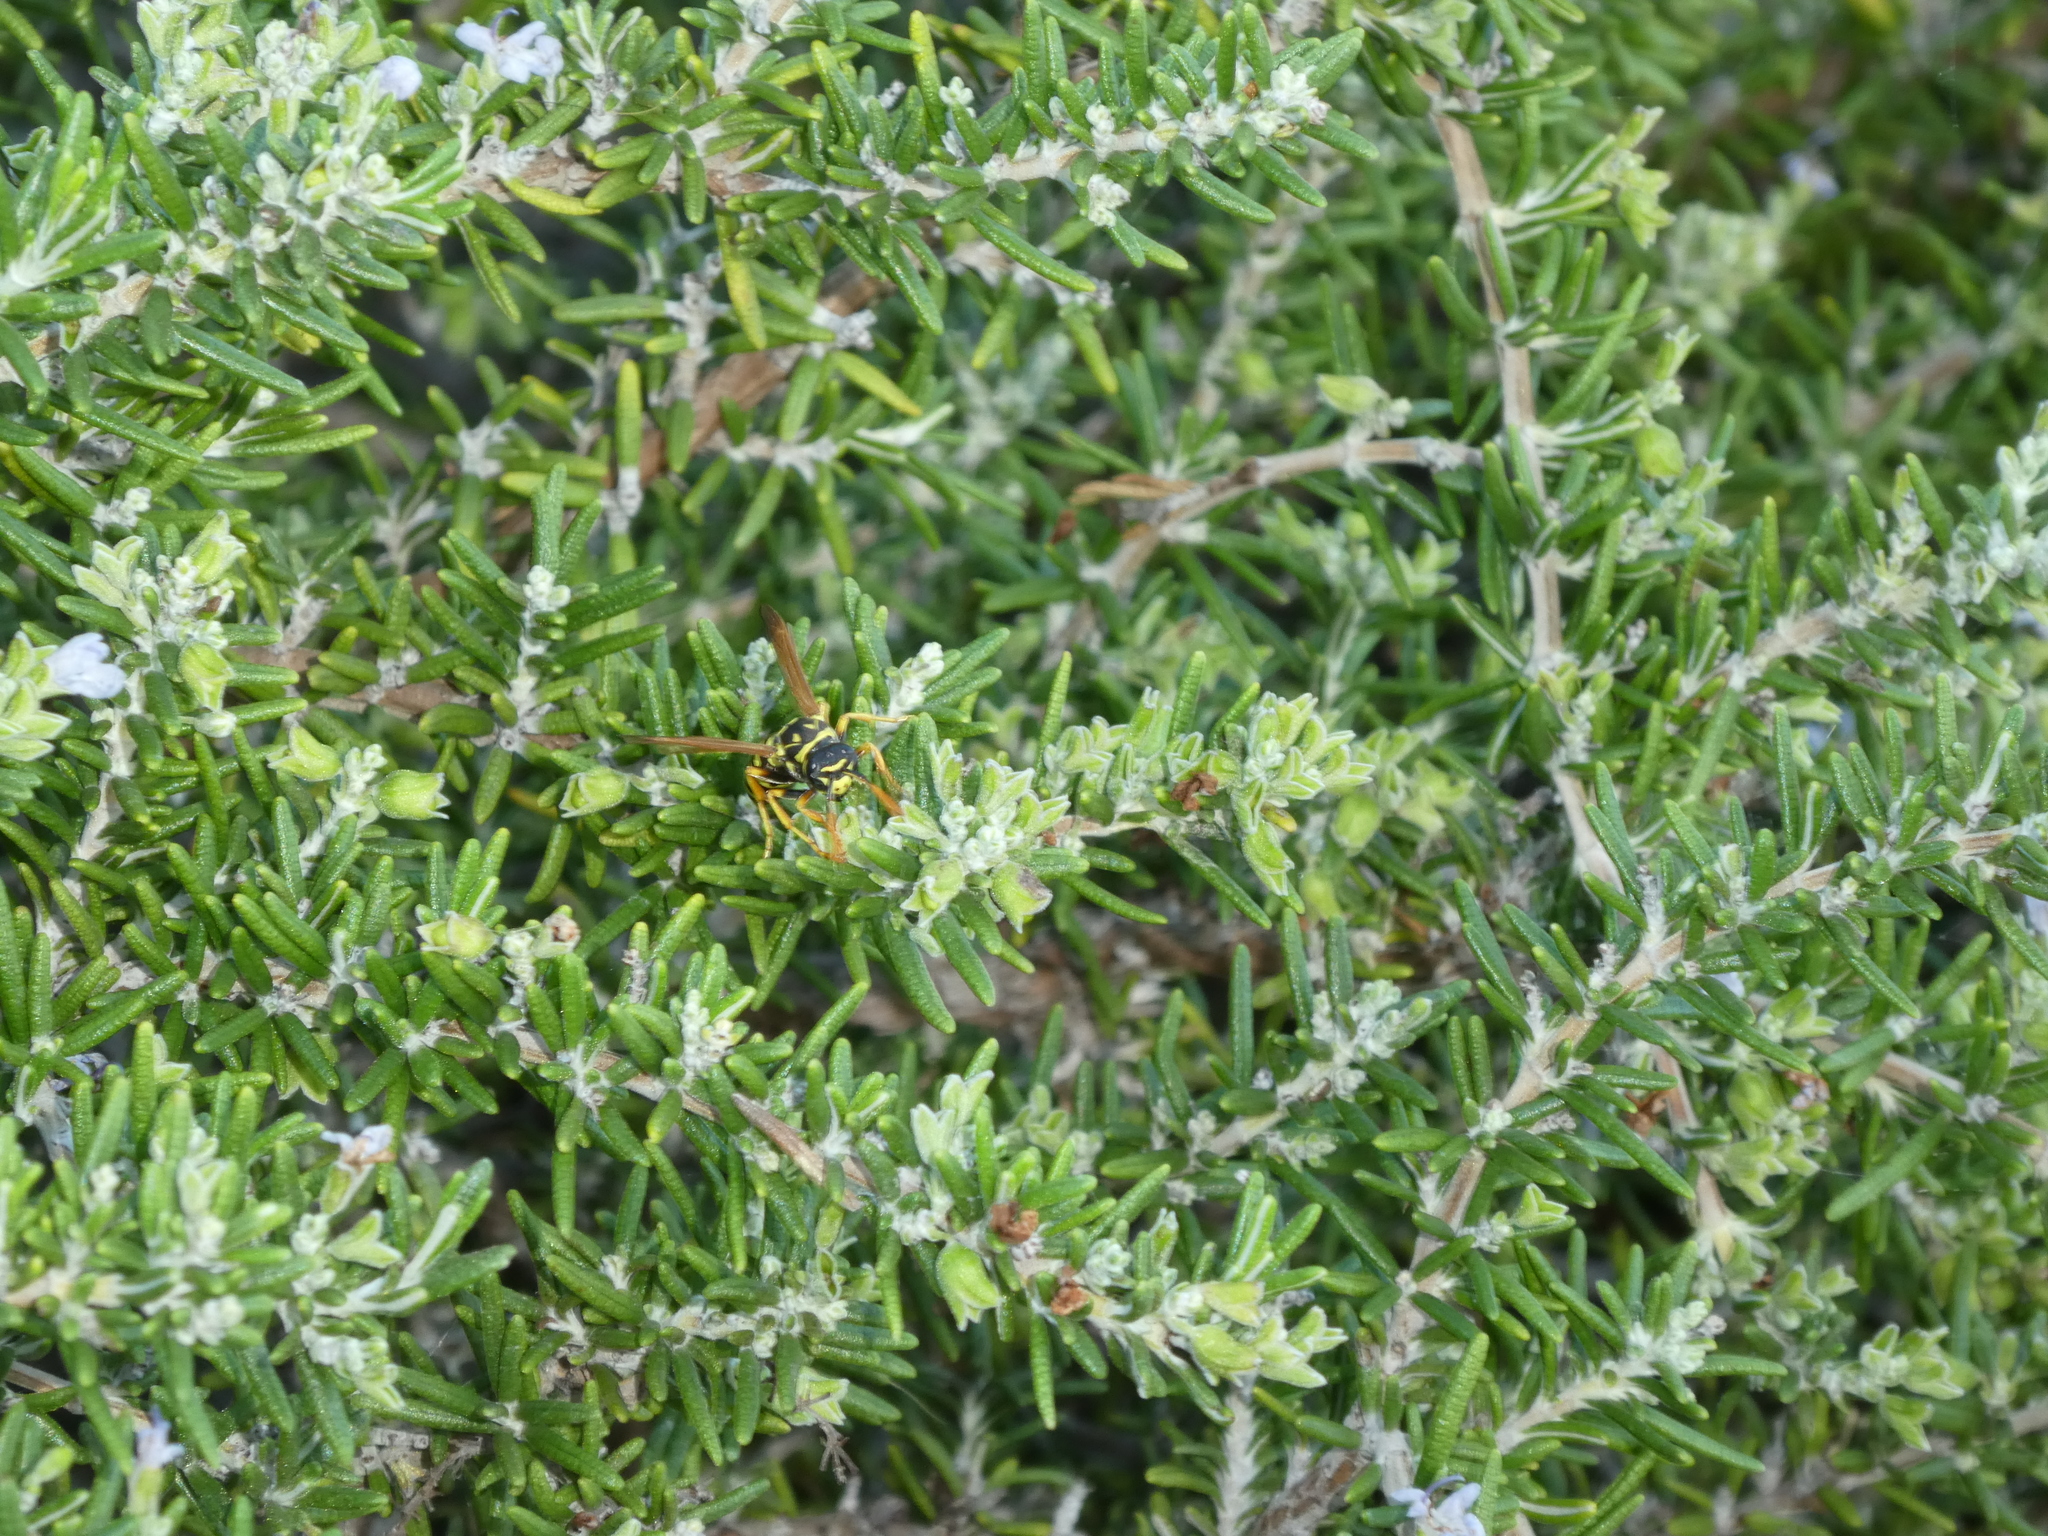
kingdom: Animalia
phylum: Arthropoda
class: Insecta
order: Hymenoptera
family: Eumenidae
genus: Polistes
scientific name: Polistes dominula
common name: Paper wasp
